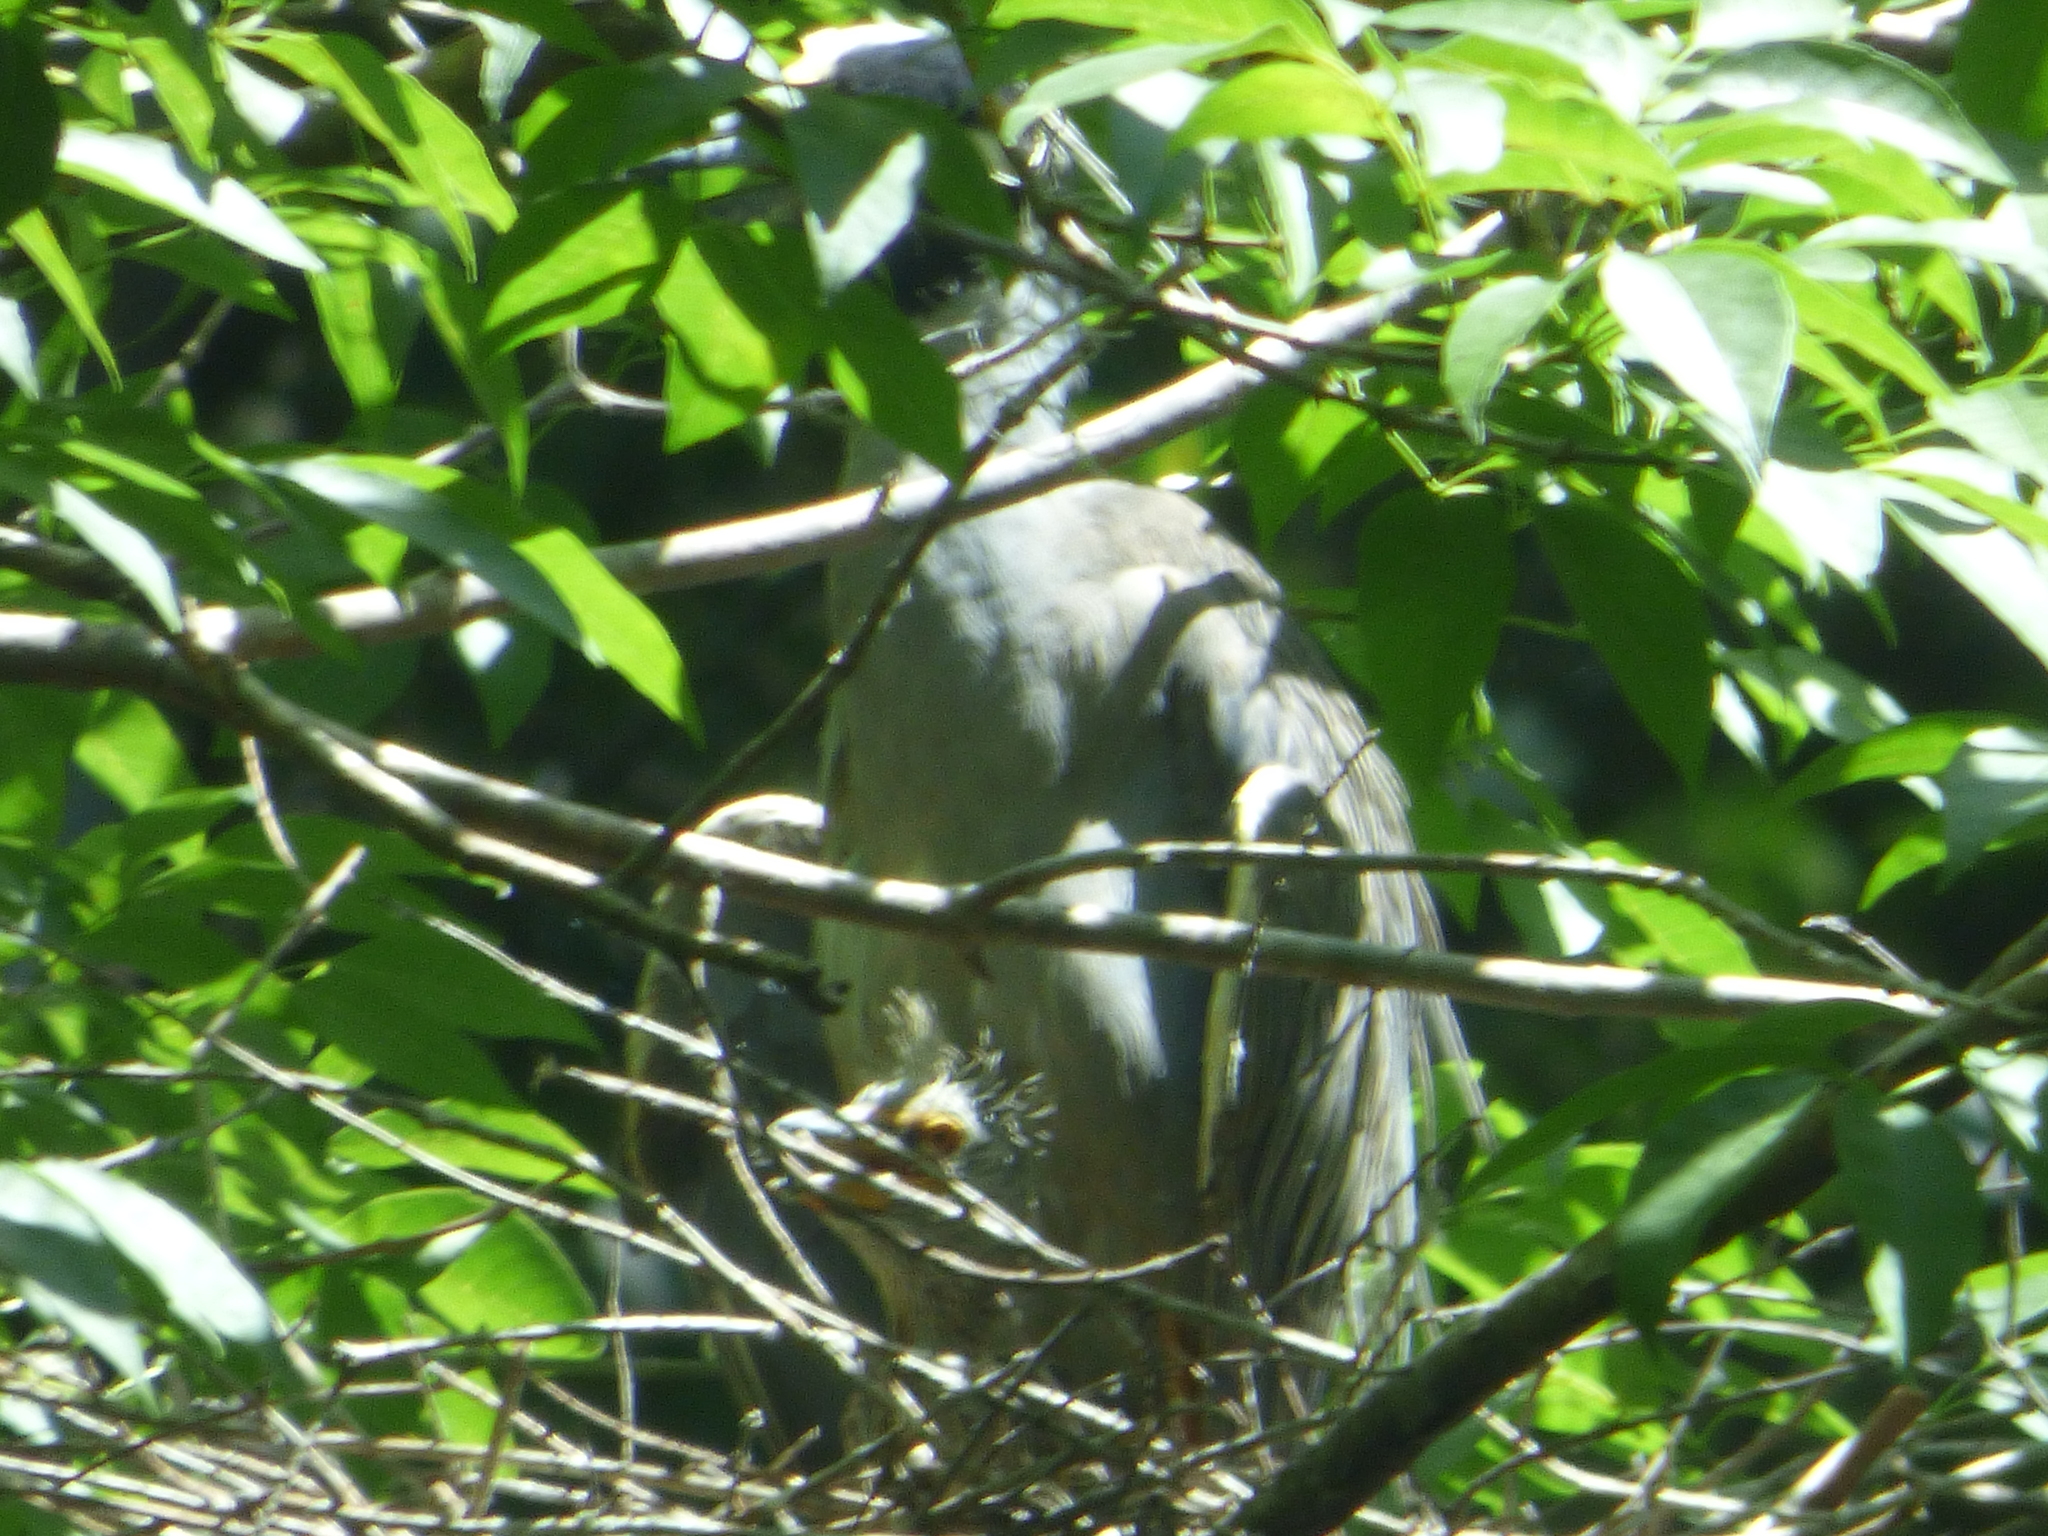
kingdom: Animalia
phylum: Chordata
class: Aves
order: Pelecaniformes
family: Ardeidae
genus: Nyctanassa
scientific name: Nyctanassa violacea
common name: Yellow-crowned night heron
